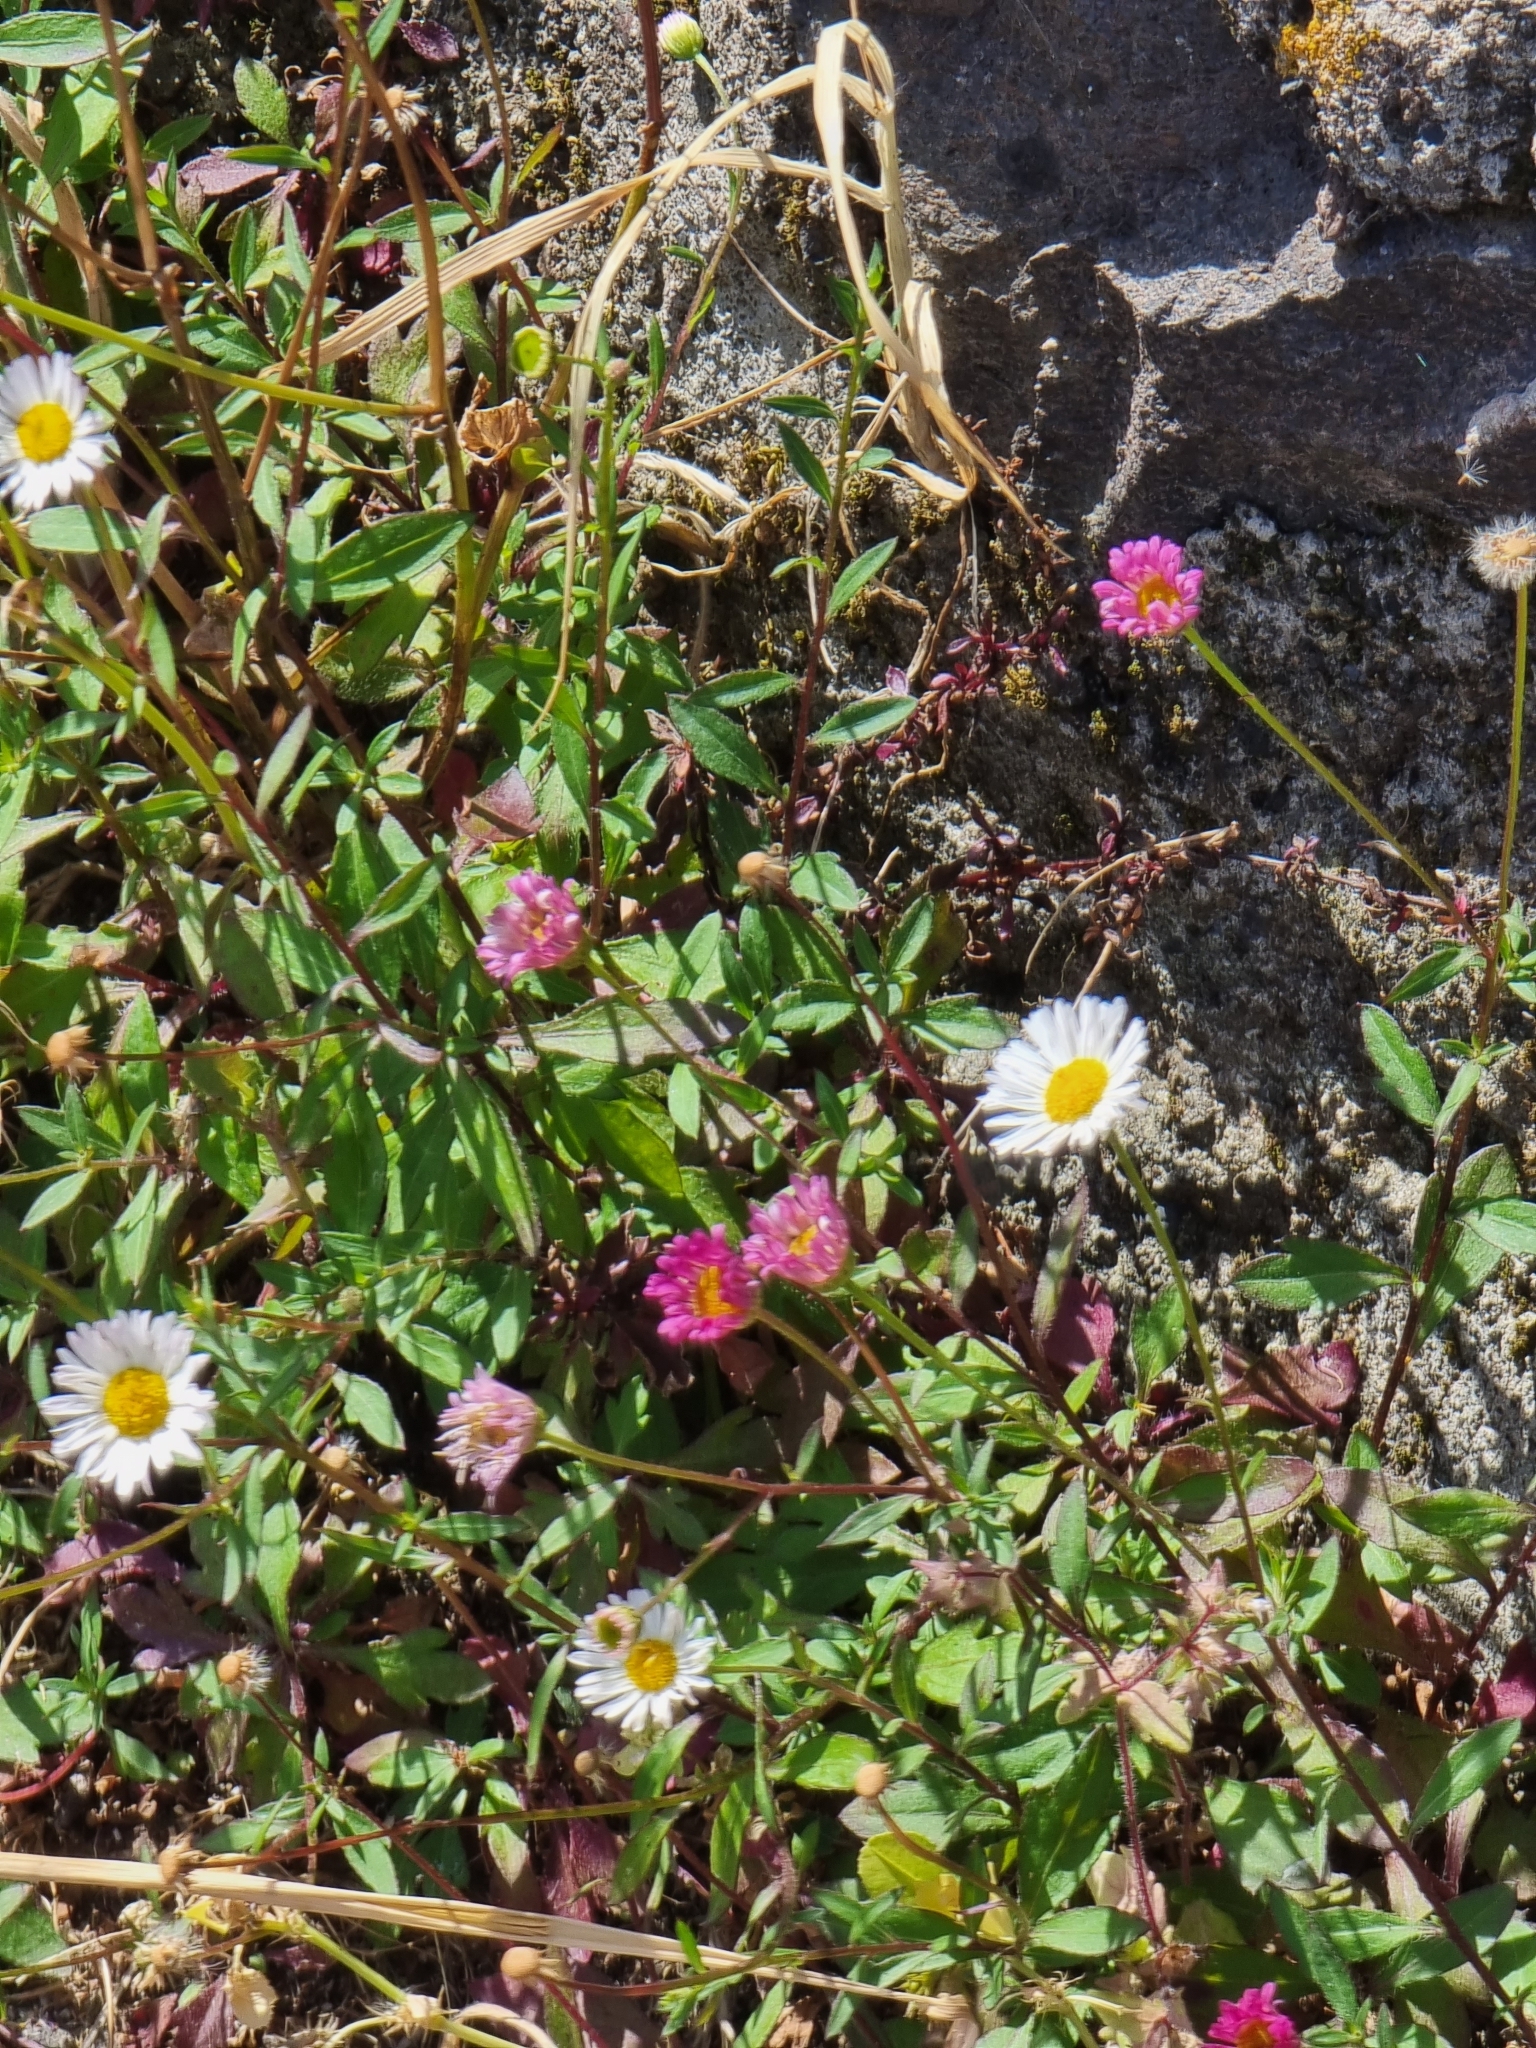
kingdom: Plantae
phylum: Tracheophyta
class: Magnoliopsida
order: Asterales
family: Asteraceae
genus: Erigeron
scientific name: Erigeron karvinskianus
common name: Mexican fleabane
